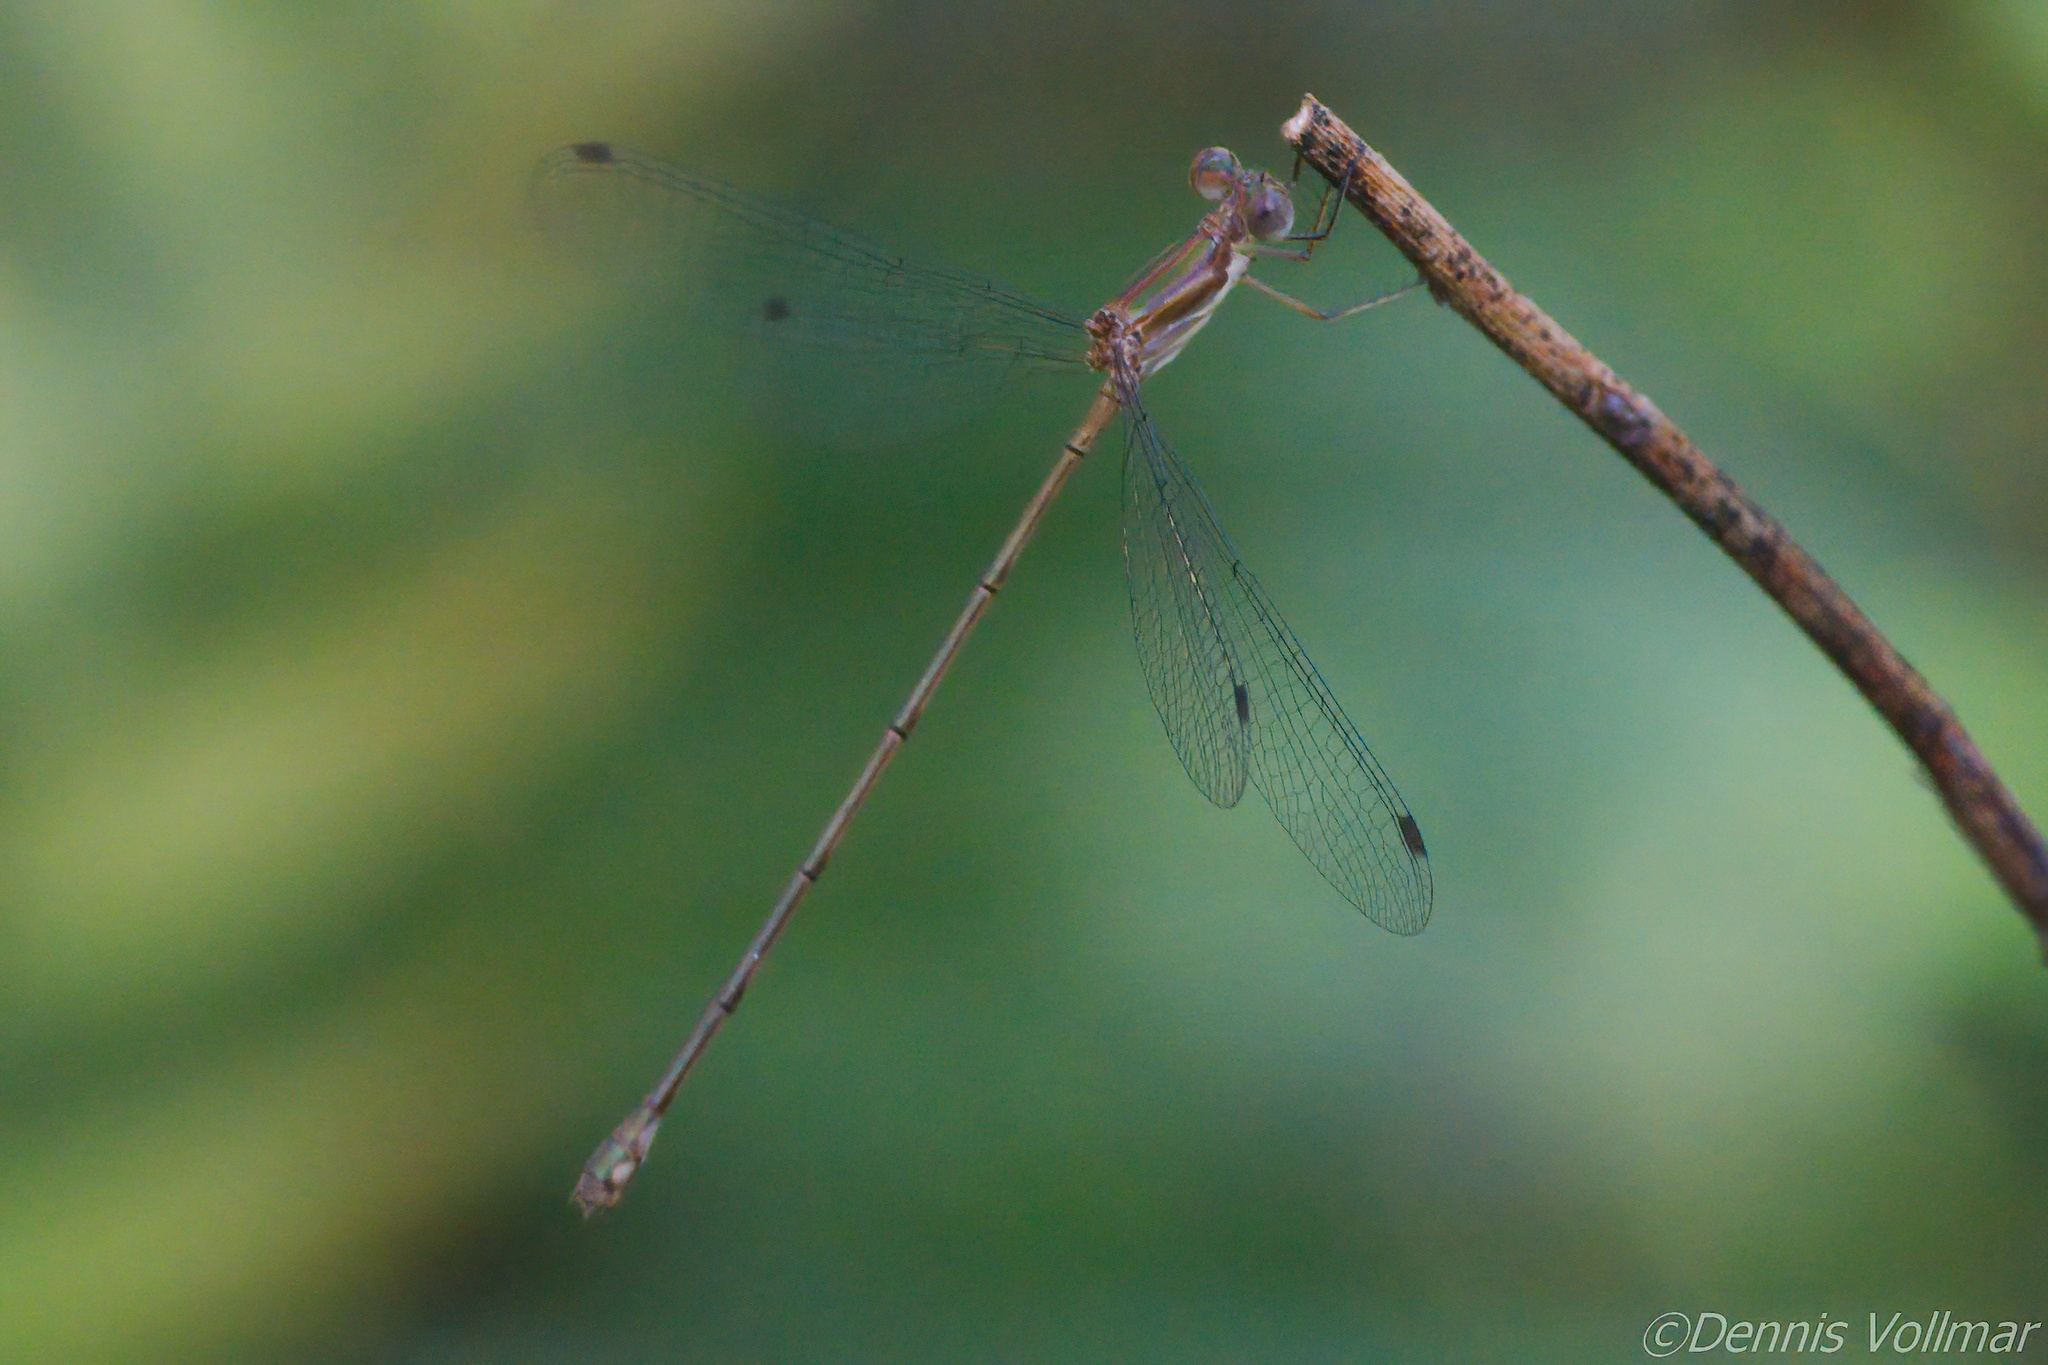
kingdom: Animalia
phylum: Arthropoda
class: Insecta
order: Odonata
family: Lestidae
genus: Lestes
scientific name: Lestes tenuatus
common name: Blue-striped spreadwing
